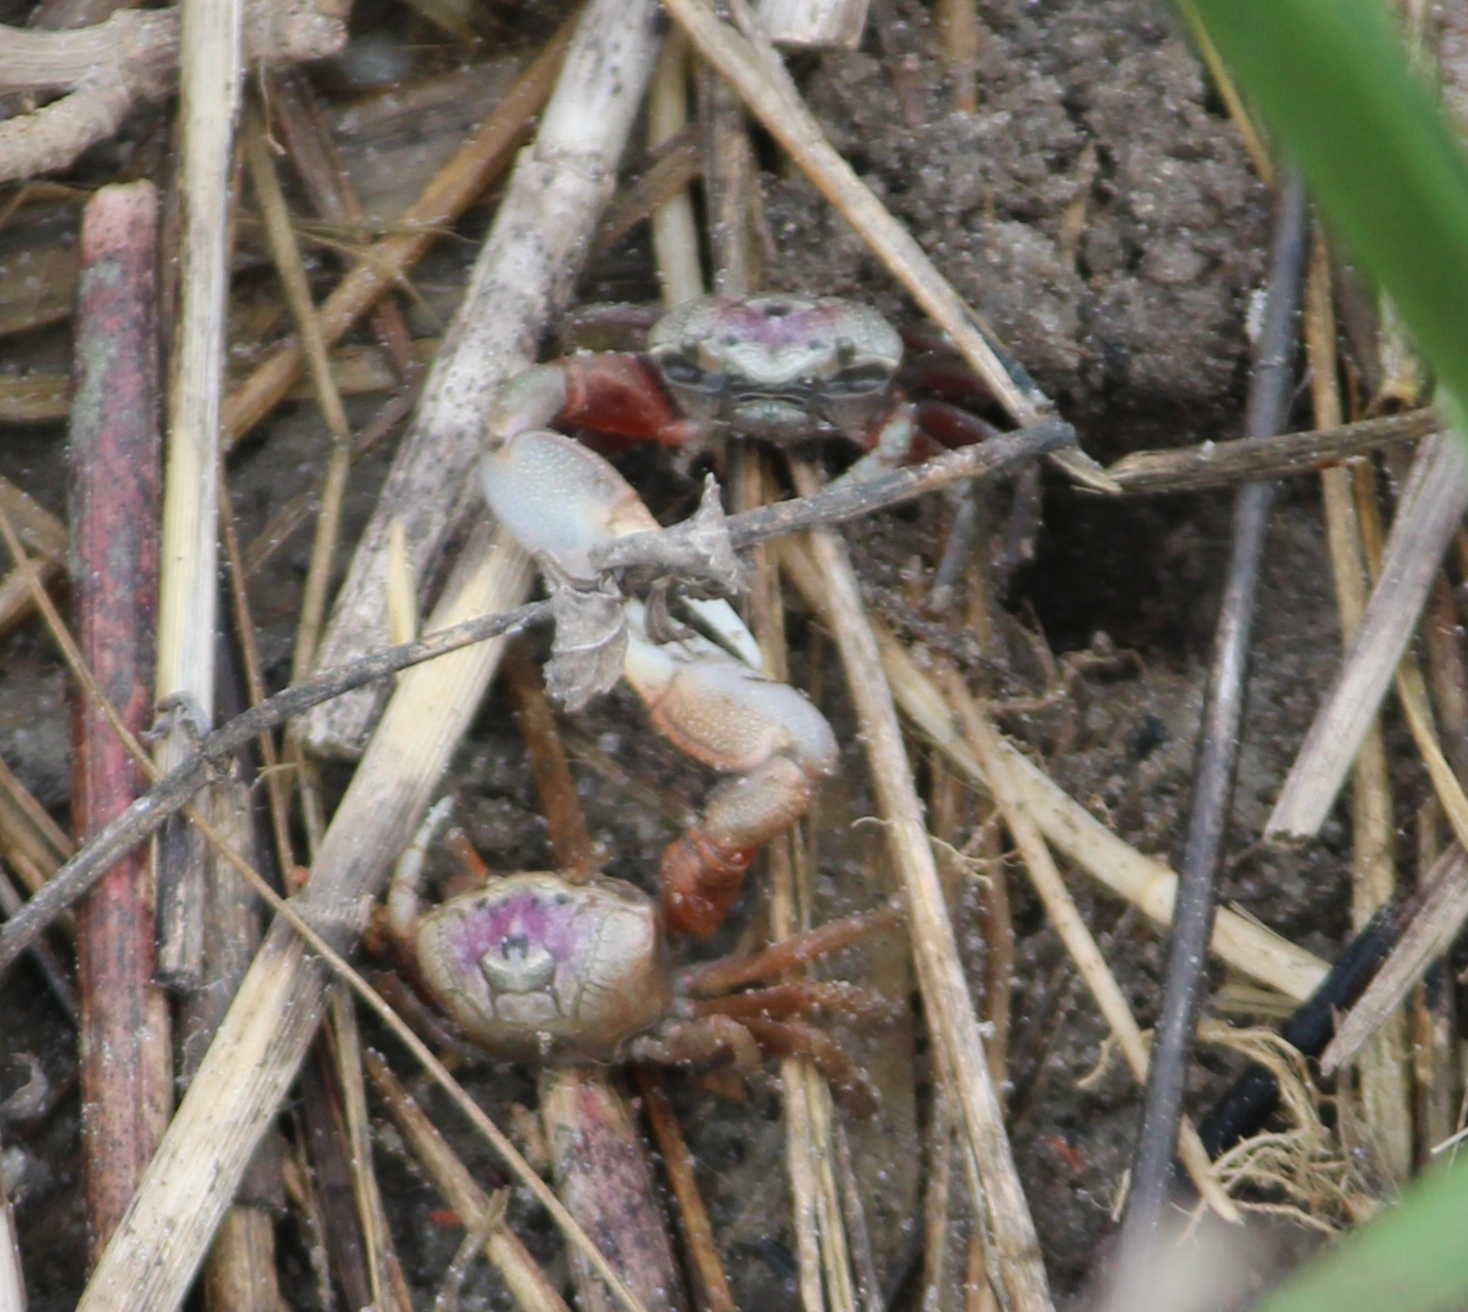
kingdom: Animalia
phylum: Arthropoda
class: Malacostraca
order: Decapoda
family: Ocypodidae
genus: Leptuca
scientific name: Leptuca pugilator
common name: Atlantic sand fiddler crab
